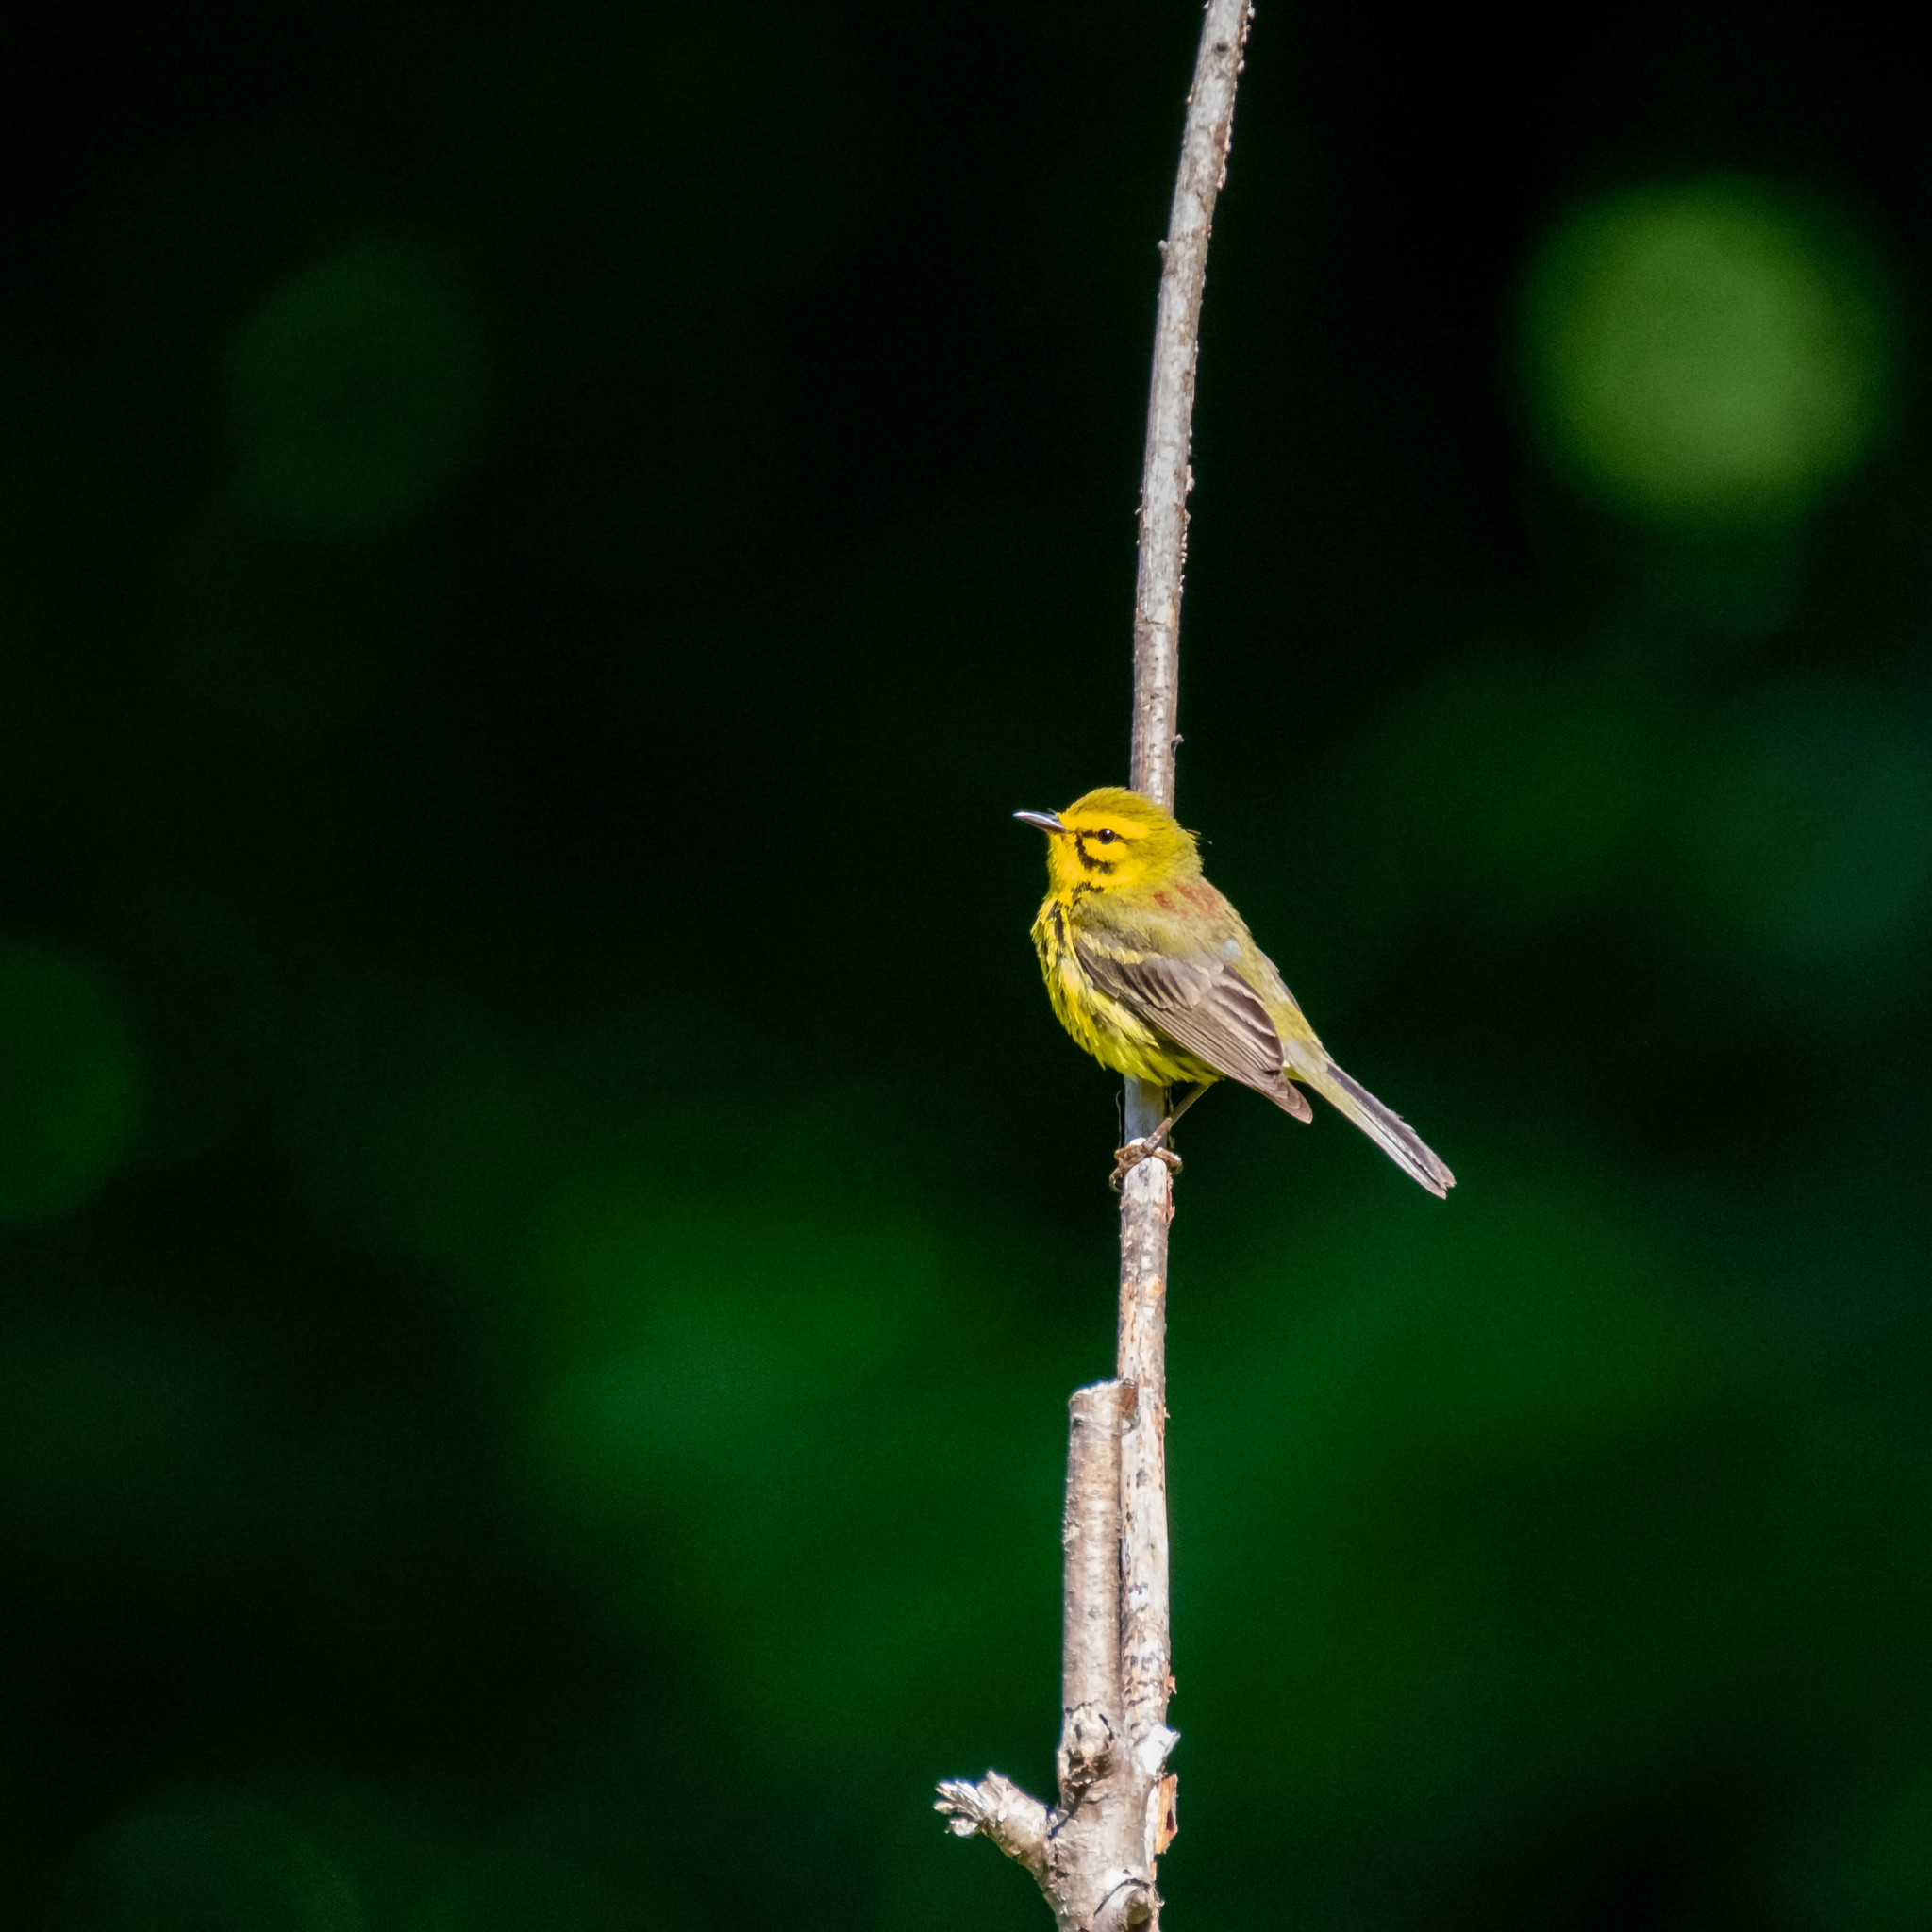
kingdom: Animalia
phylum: Chordata
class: Aves
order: Passeriformes
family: Parulidae
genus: Setophaga
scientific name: Setophaga discolor
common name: Prairie warbler
